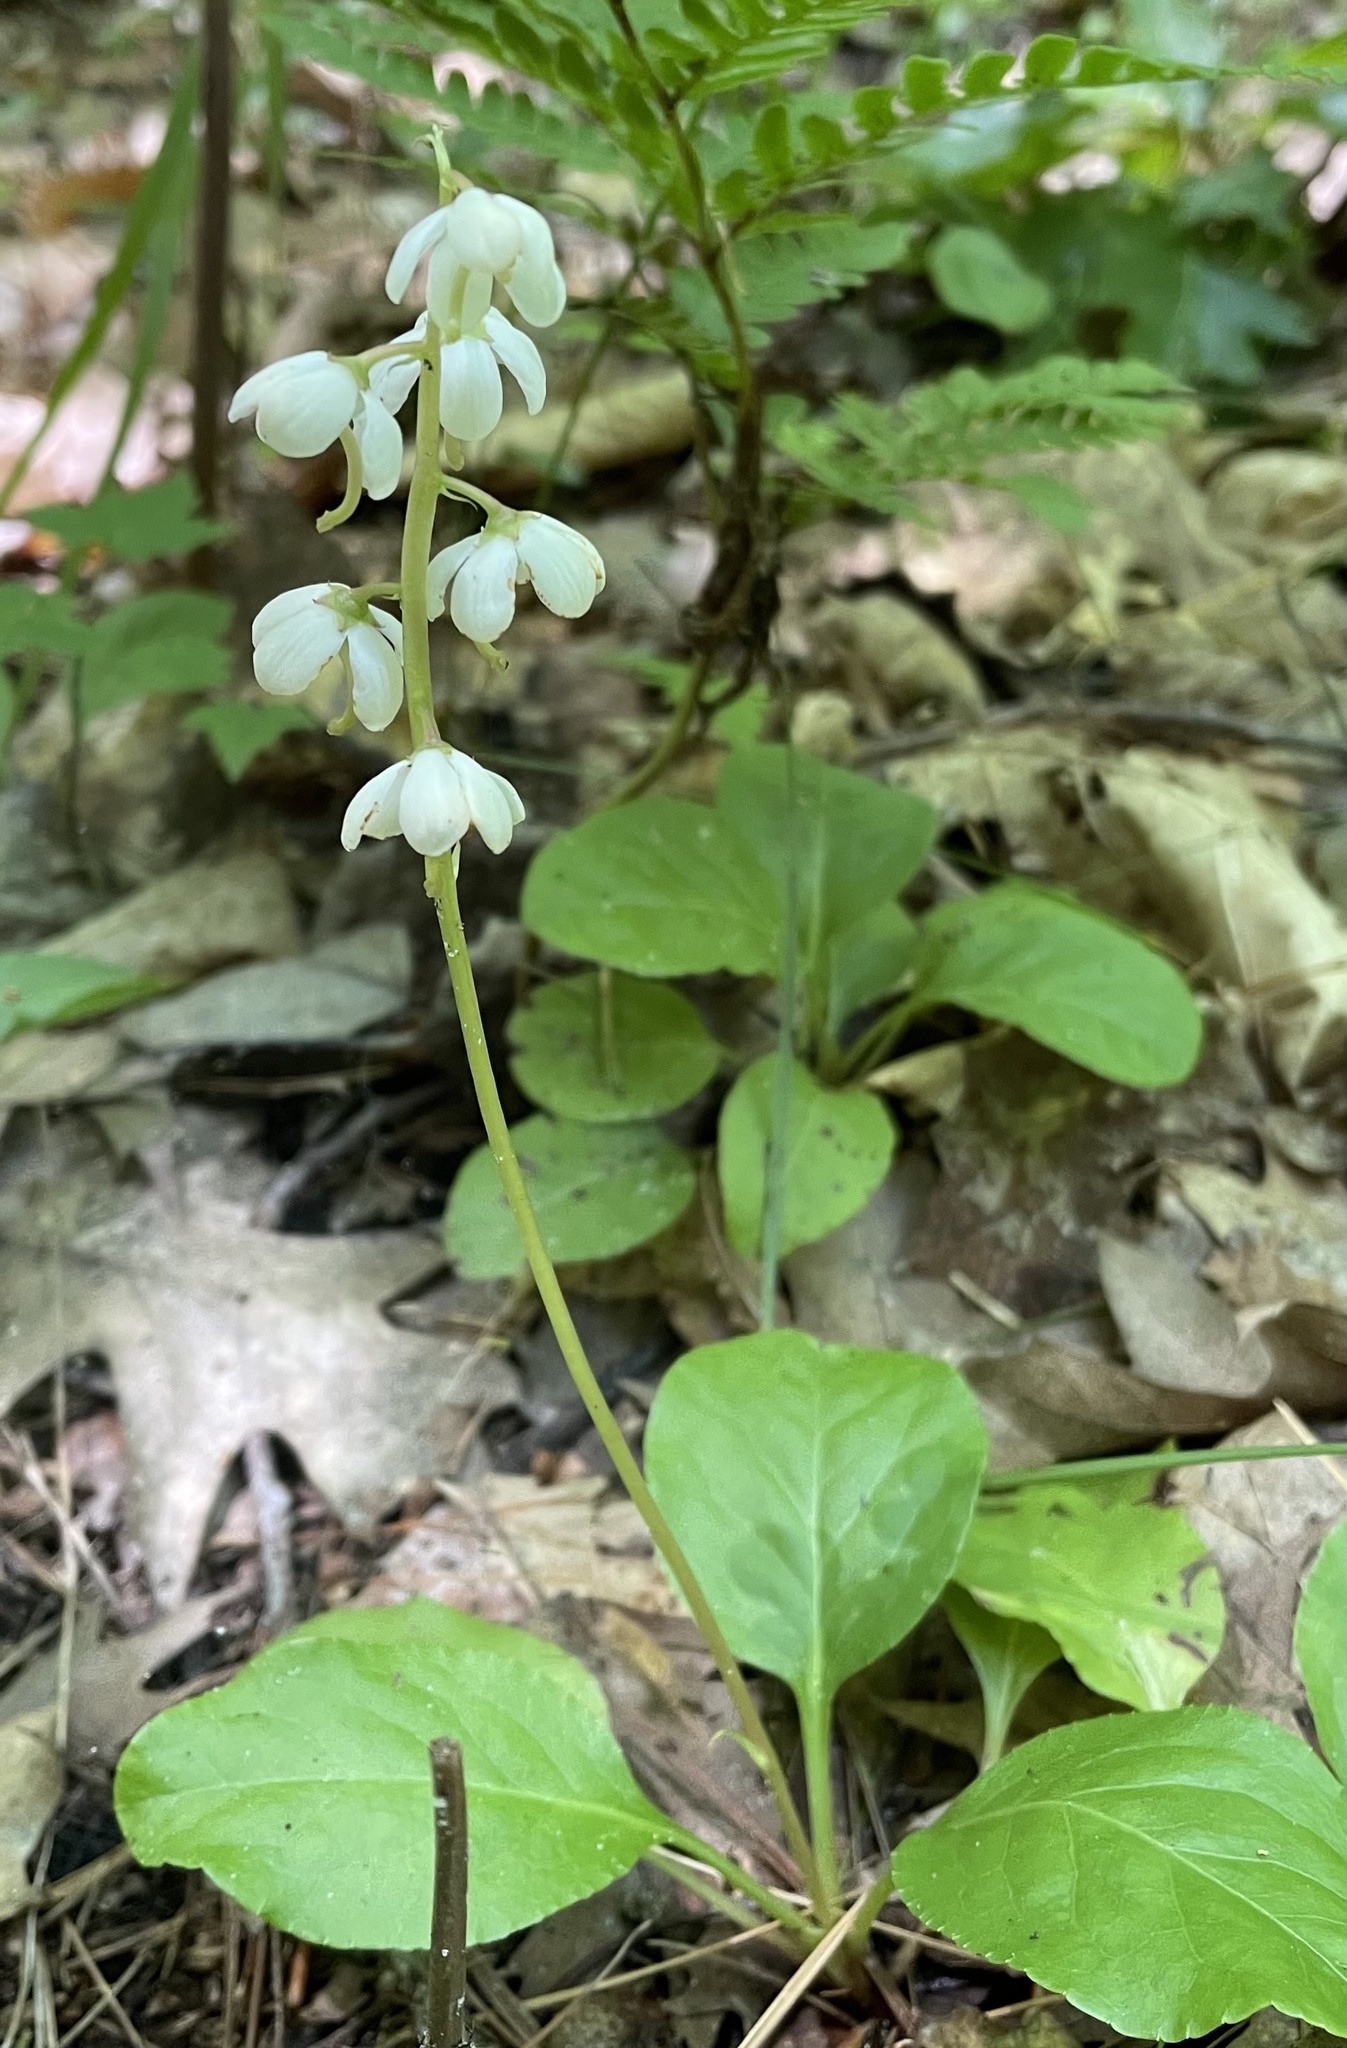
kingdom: Plantae
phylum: Tracheophyta
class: Magnoliopsida
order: Ericales
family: Ericaceae
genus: Pyrola
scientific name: Pyrola elliptica
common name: Shinleaf
